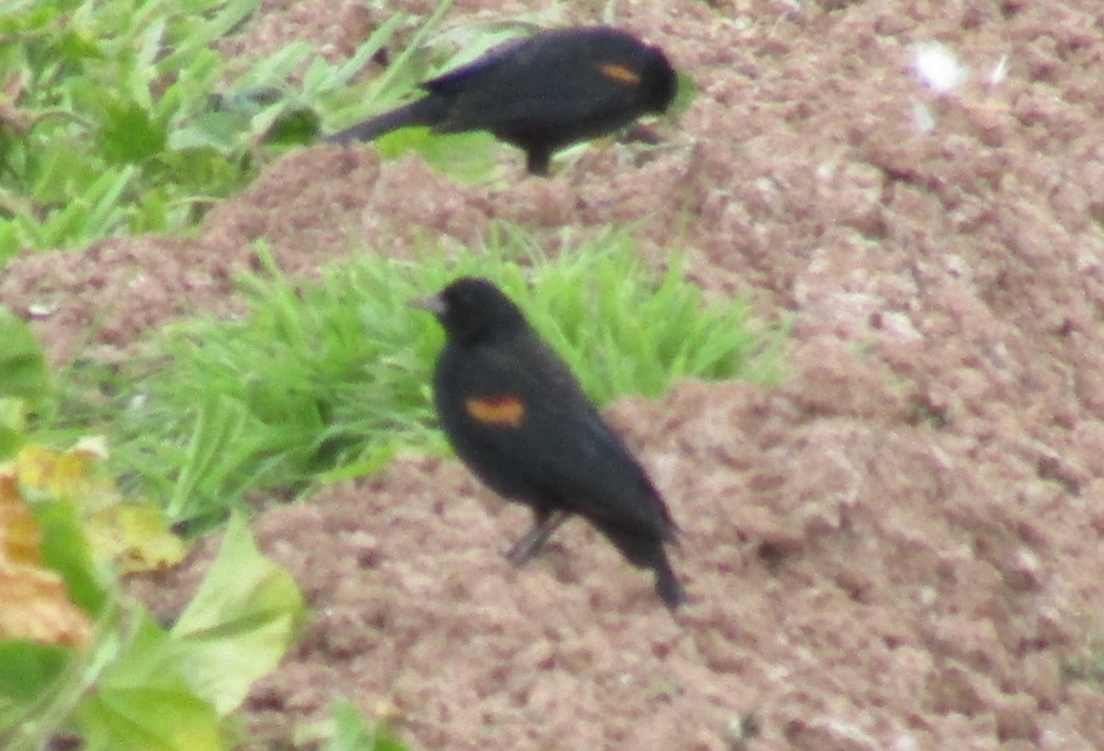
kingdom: Animalia
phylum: Chordata
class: Aves
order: Passeriformes
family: Icteridae
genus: Agelaius
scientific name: Agelaius phoeniceus
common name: Red-winged blackbird
